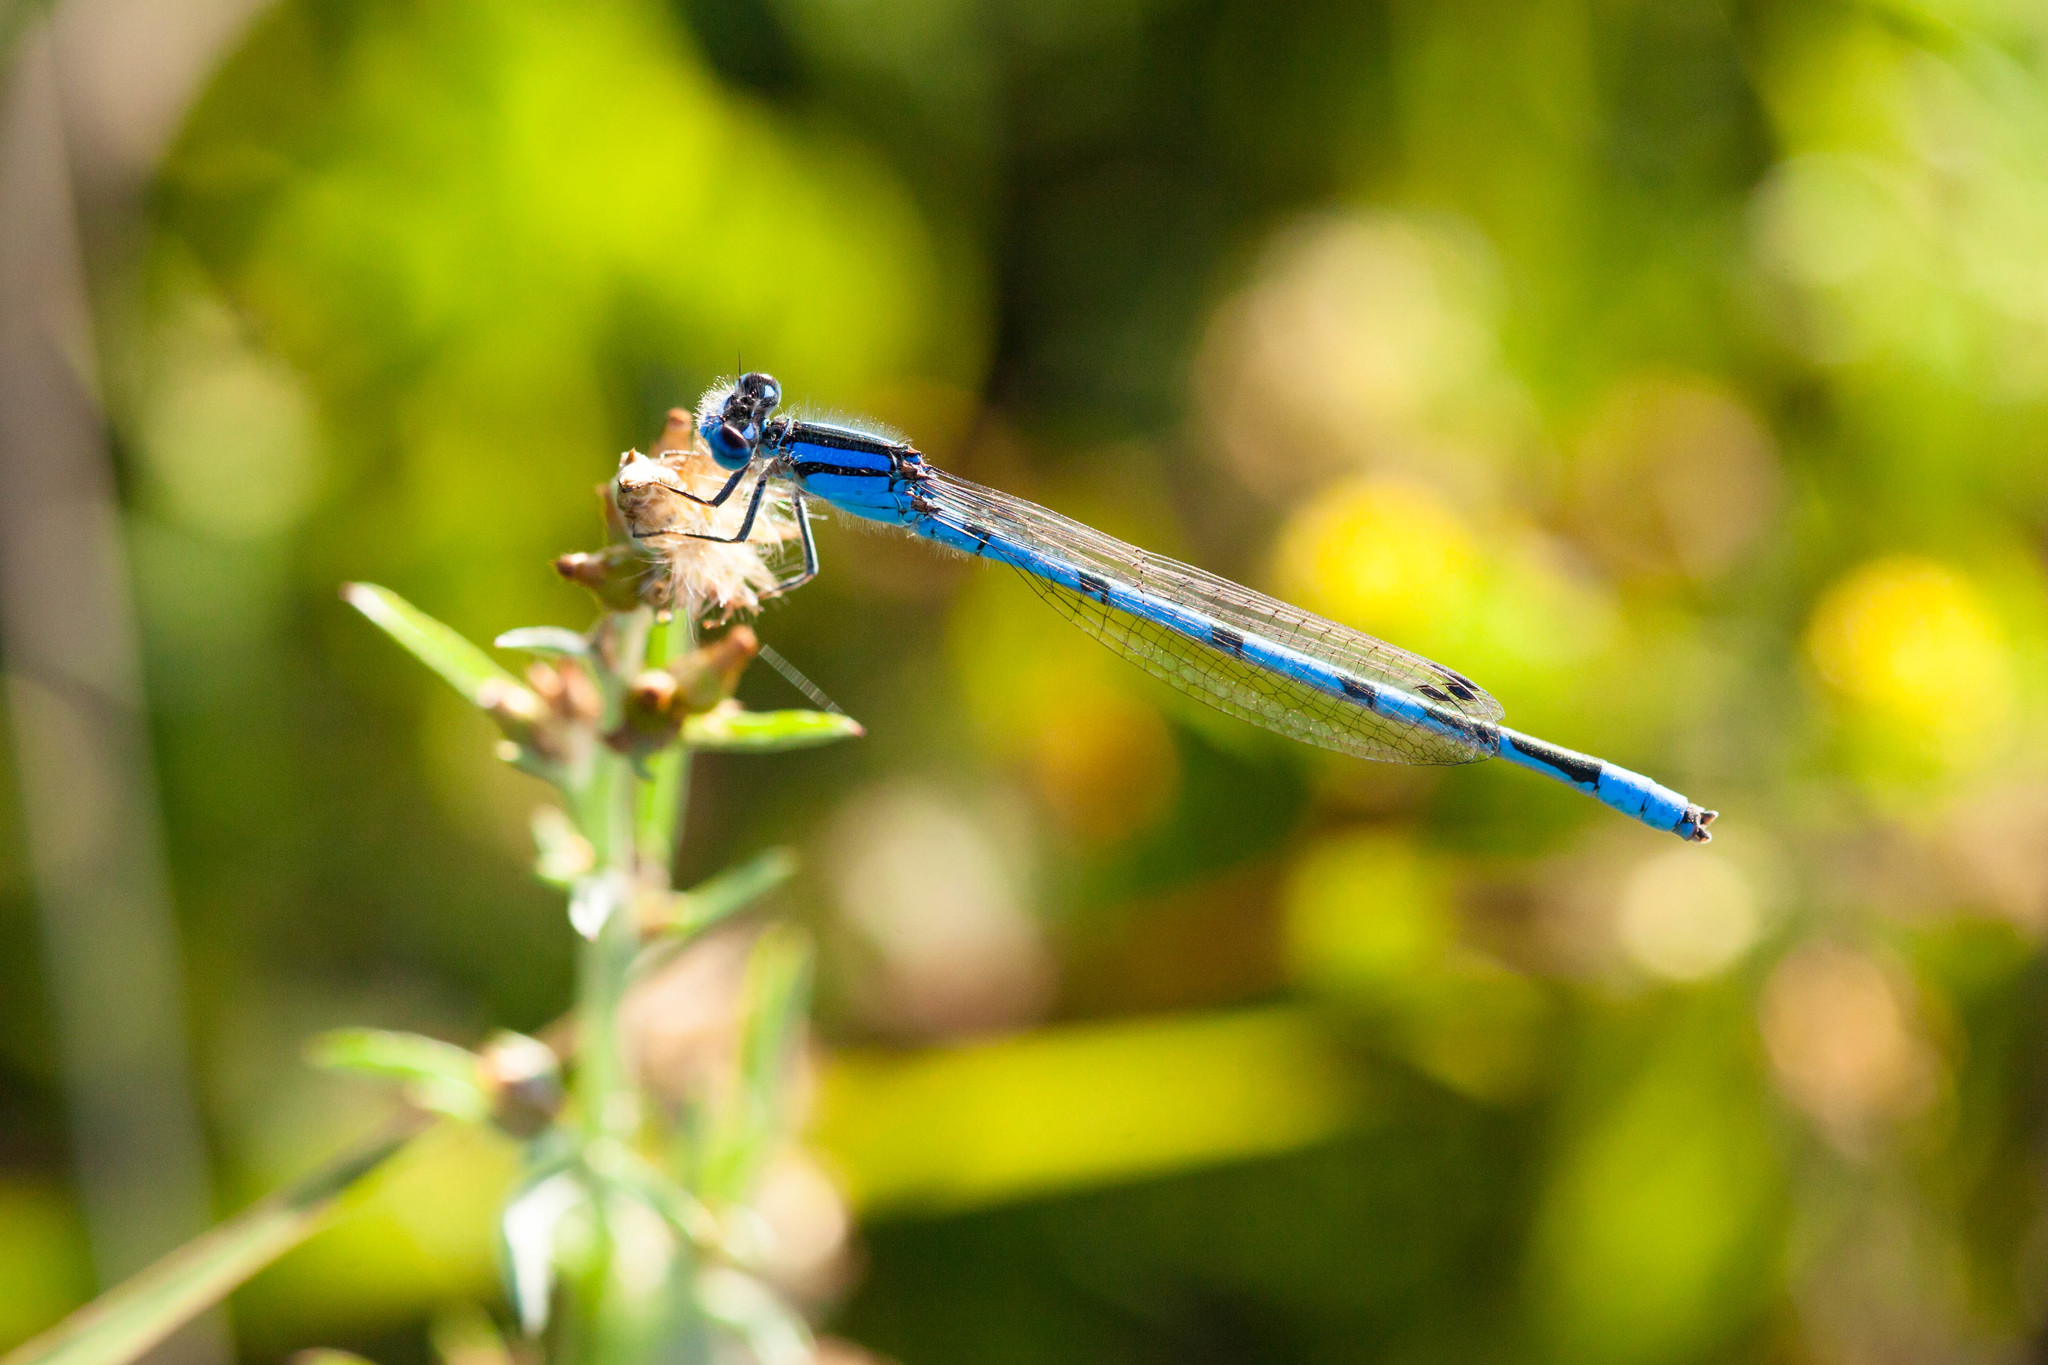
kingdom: Animalia
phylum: Arthropoda
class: Insecta
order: Odonata
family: Coenagrionidae
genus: Enallagma
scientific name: Enallagma civile
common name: Damselfly
